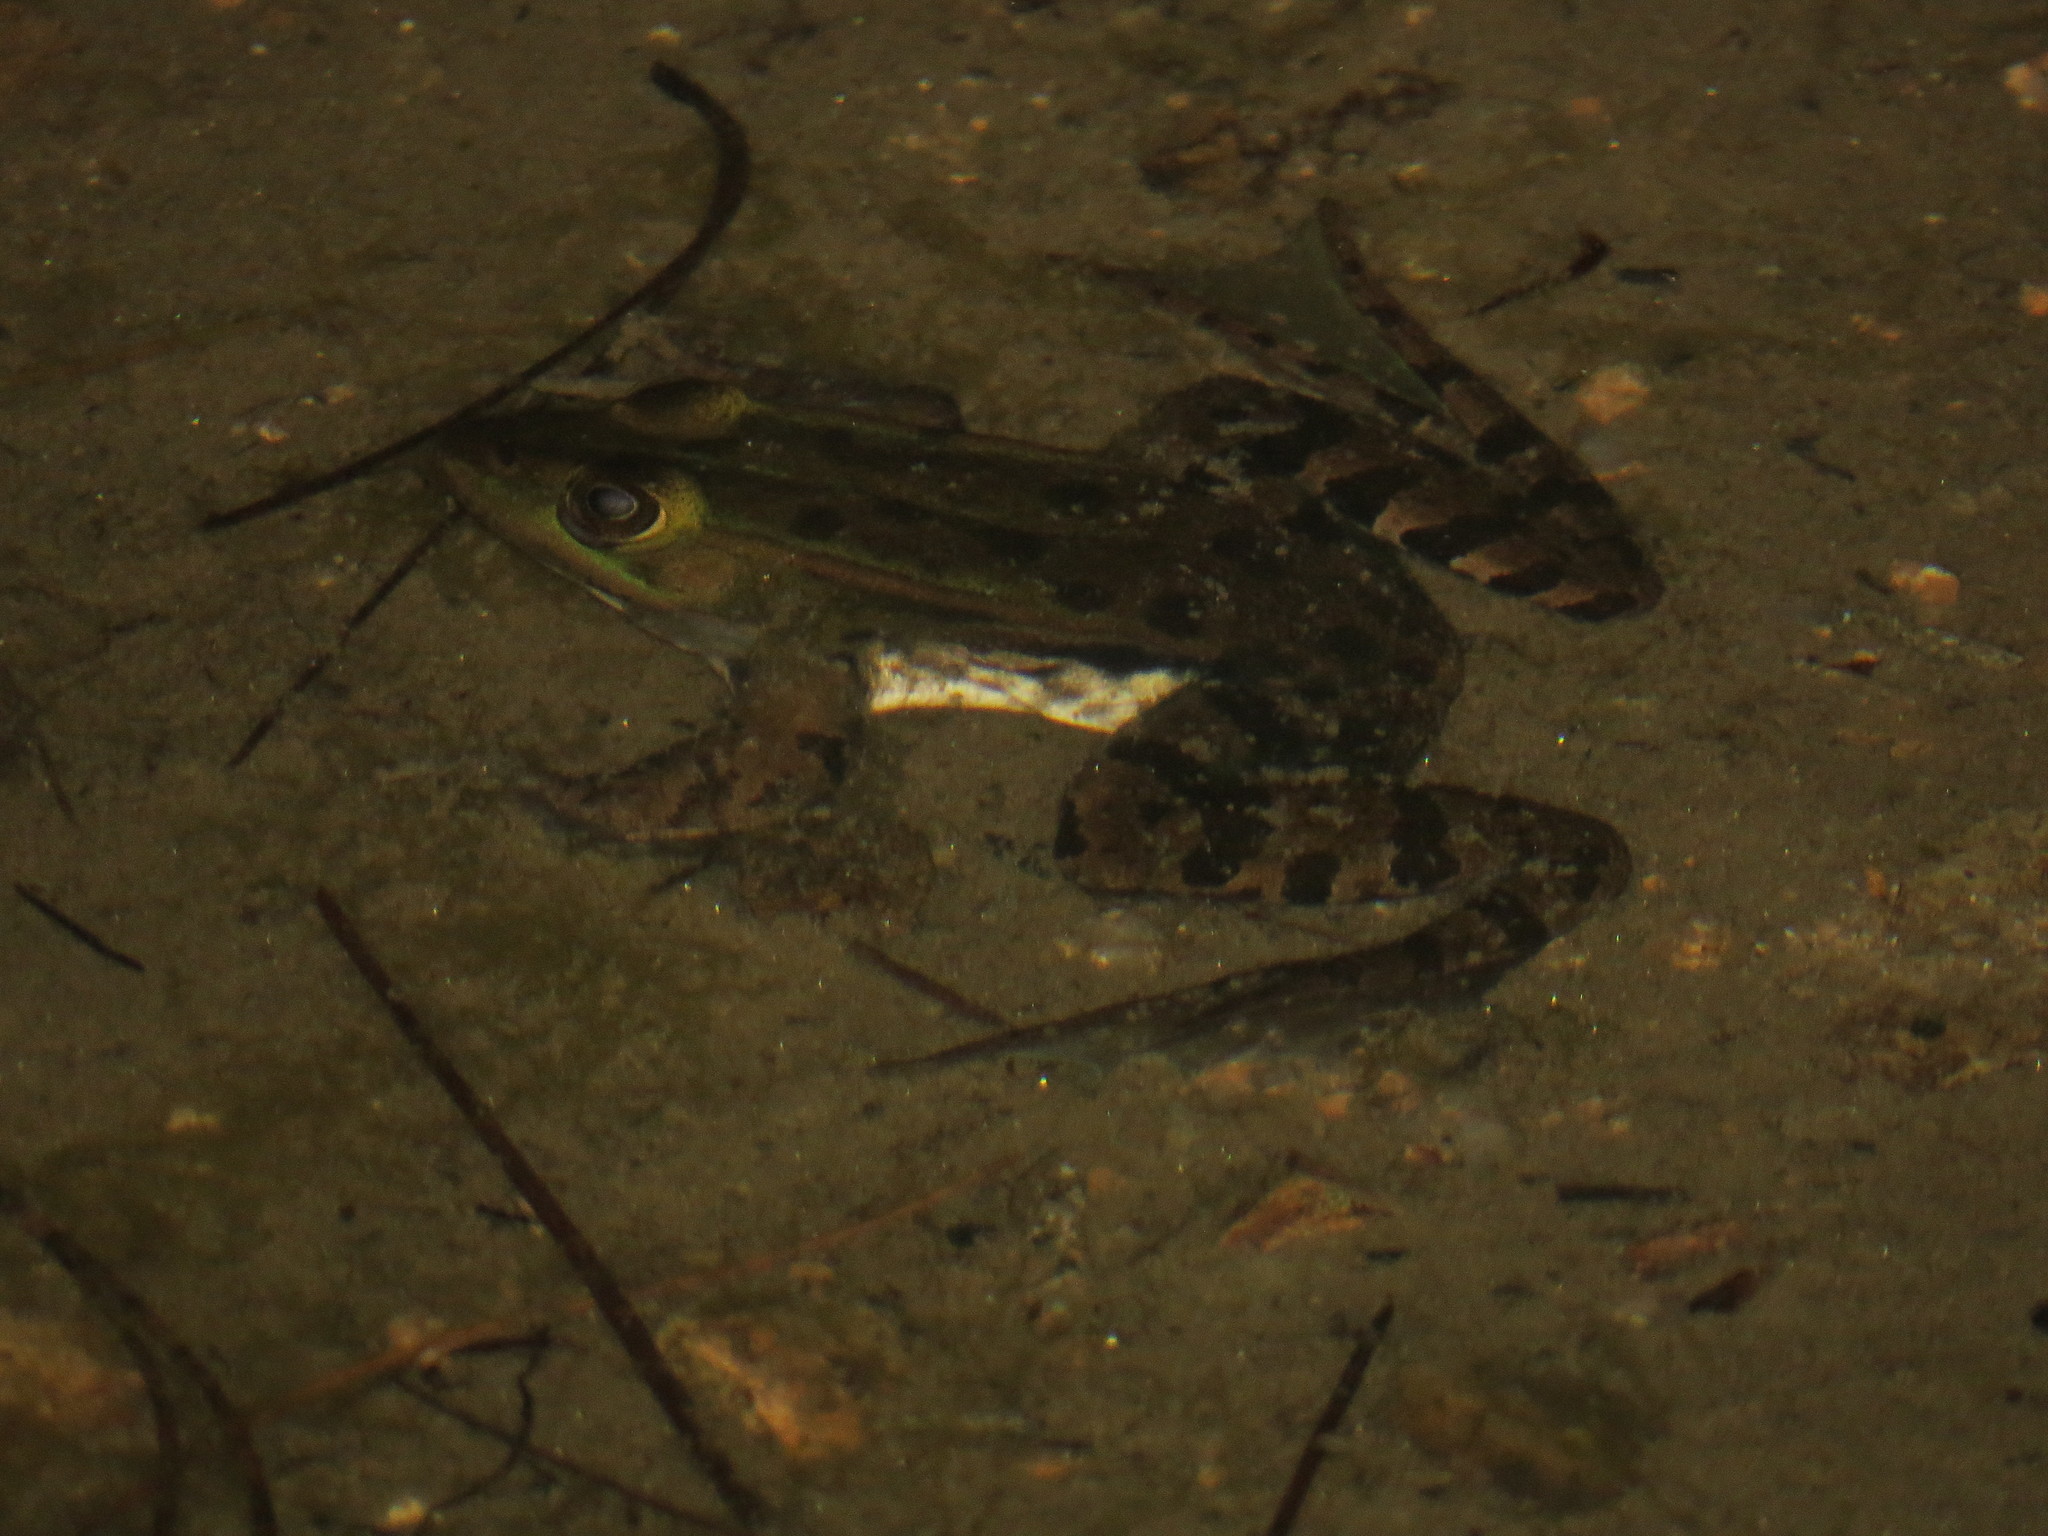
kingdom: Animalia
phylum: Chordata
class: Amphibia
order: Anura
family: Ranidae
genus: Pelophylax
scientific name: Pelophylax bergeri
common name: Italian pool frog
